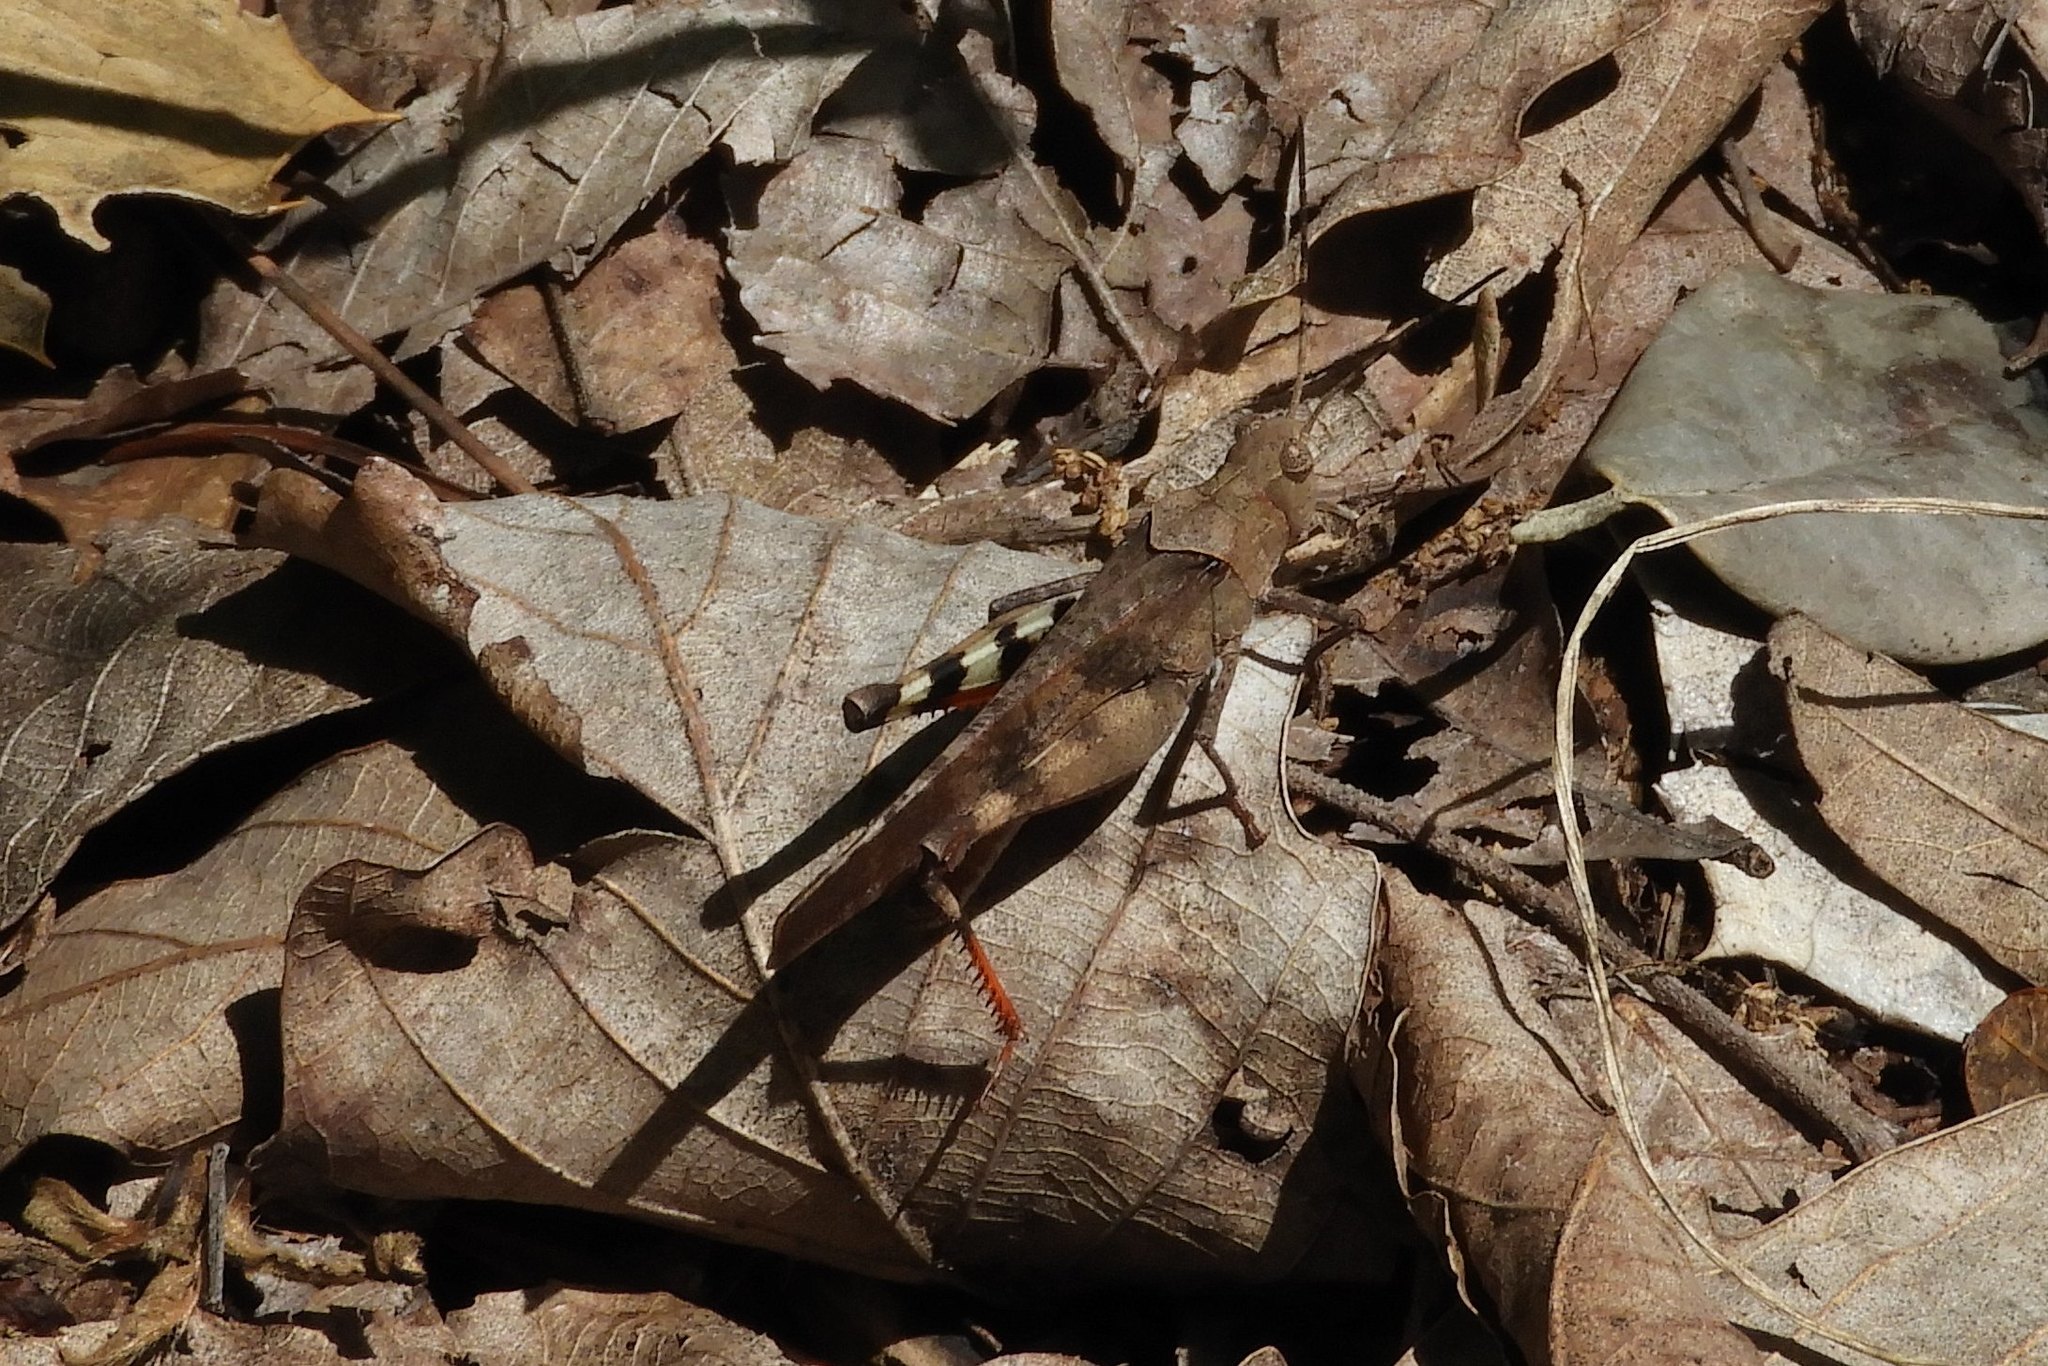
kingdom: Animalia
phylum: Arthropoda
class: Insecta
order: Orthoptera
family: Acrididae
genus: Spharagemon
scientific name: Spharagemon bolli
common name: Boll's grasshopper
